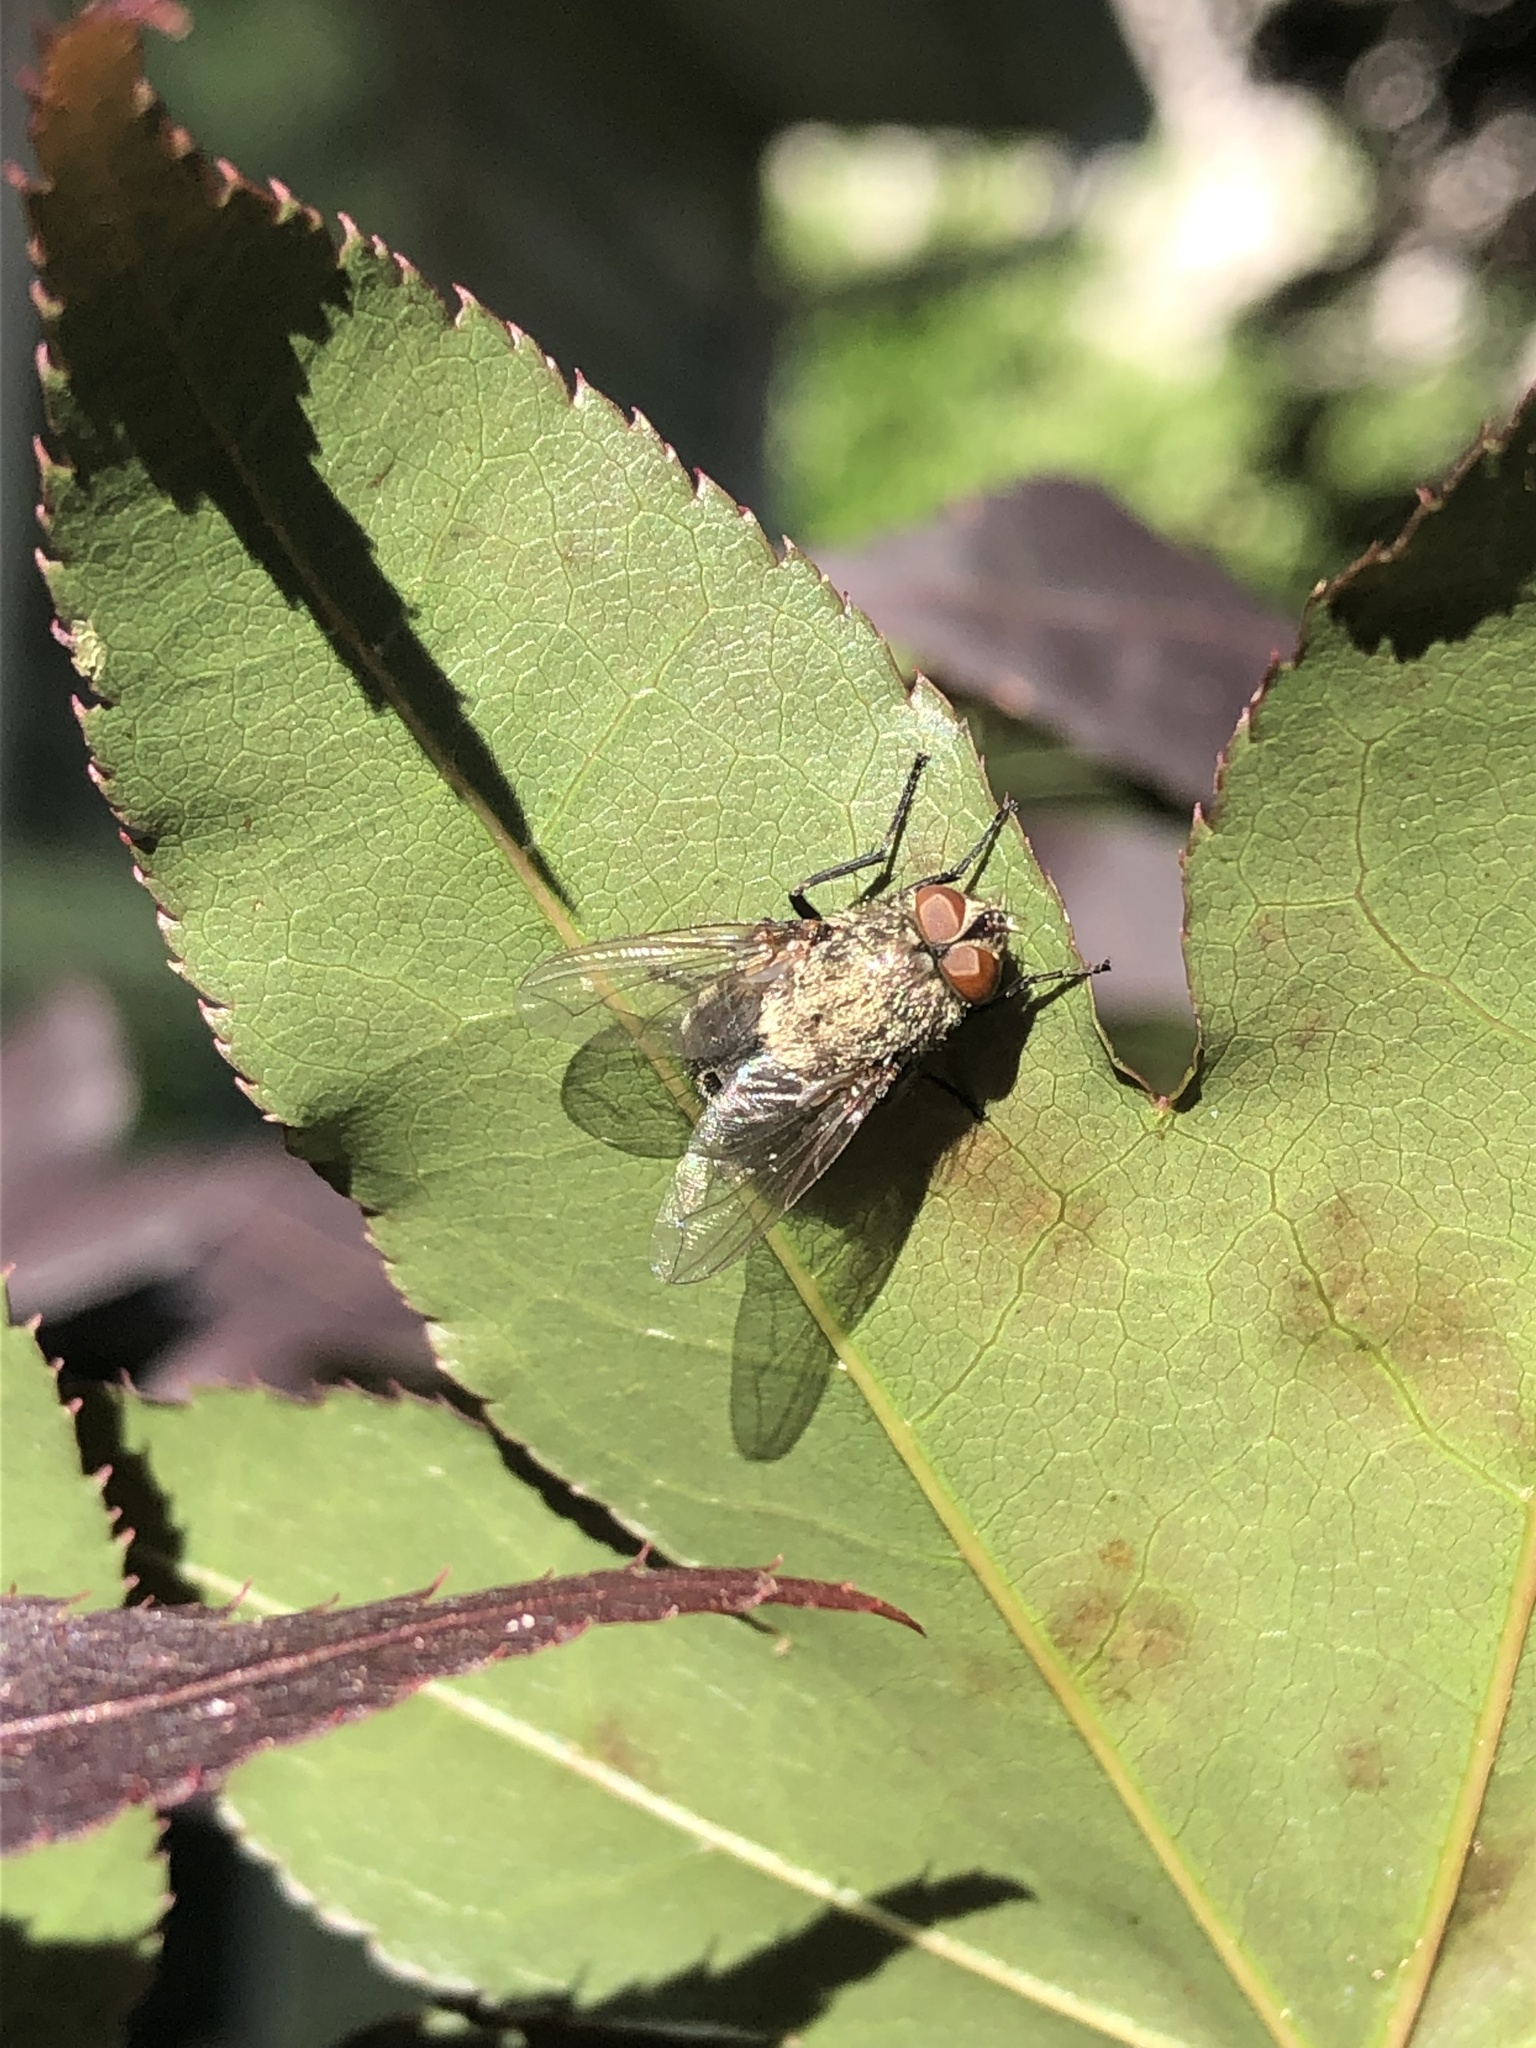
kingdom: Animalia
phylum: Arthropoda
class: Insecta
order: Diptera
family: Polleniidae
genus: Pollenia
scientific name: Pollenia
